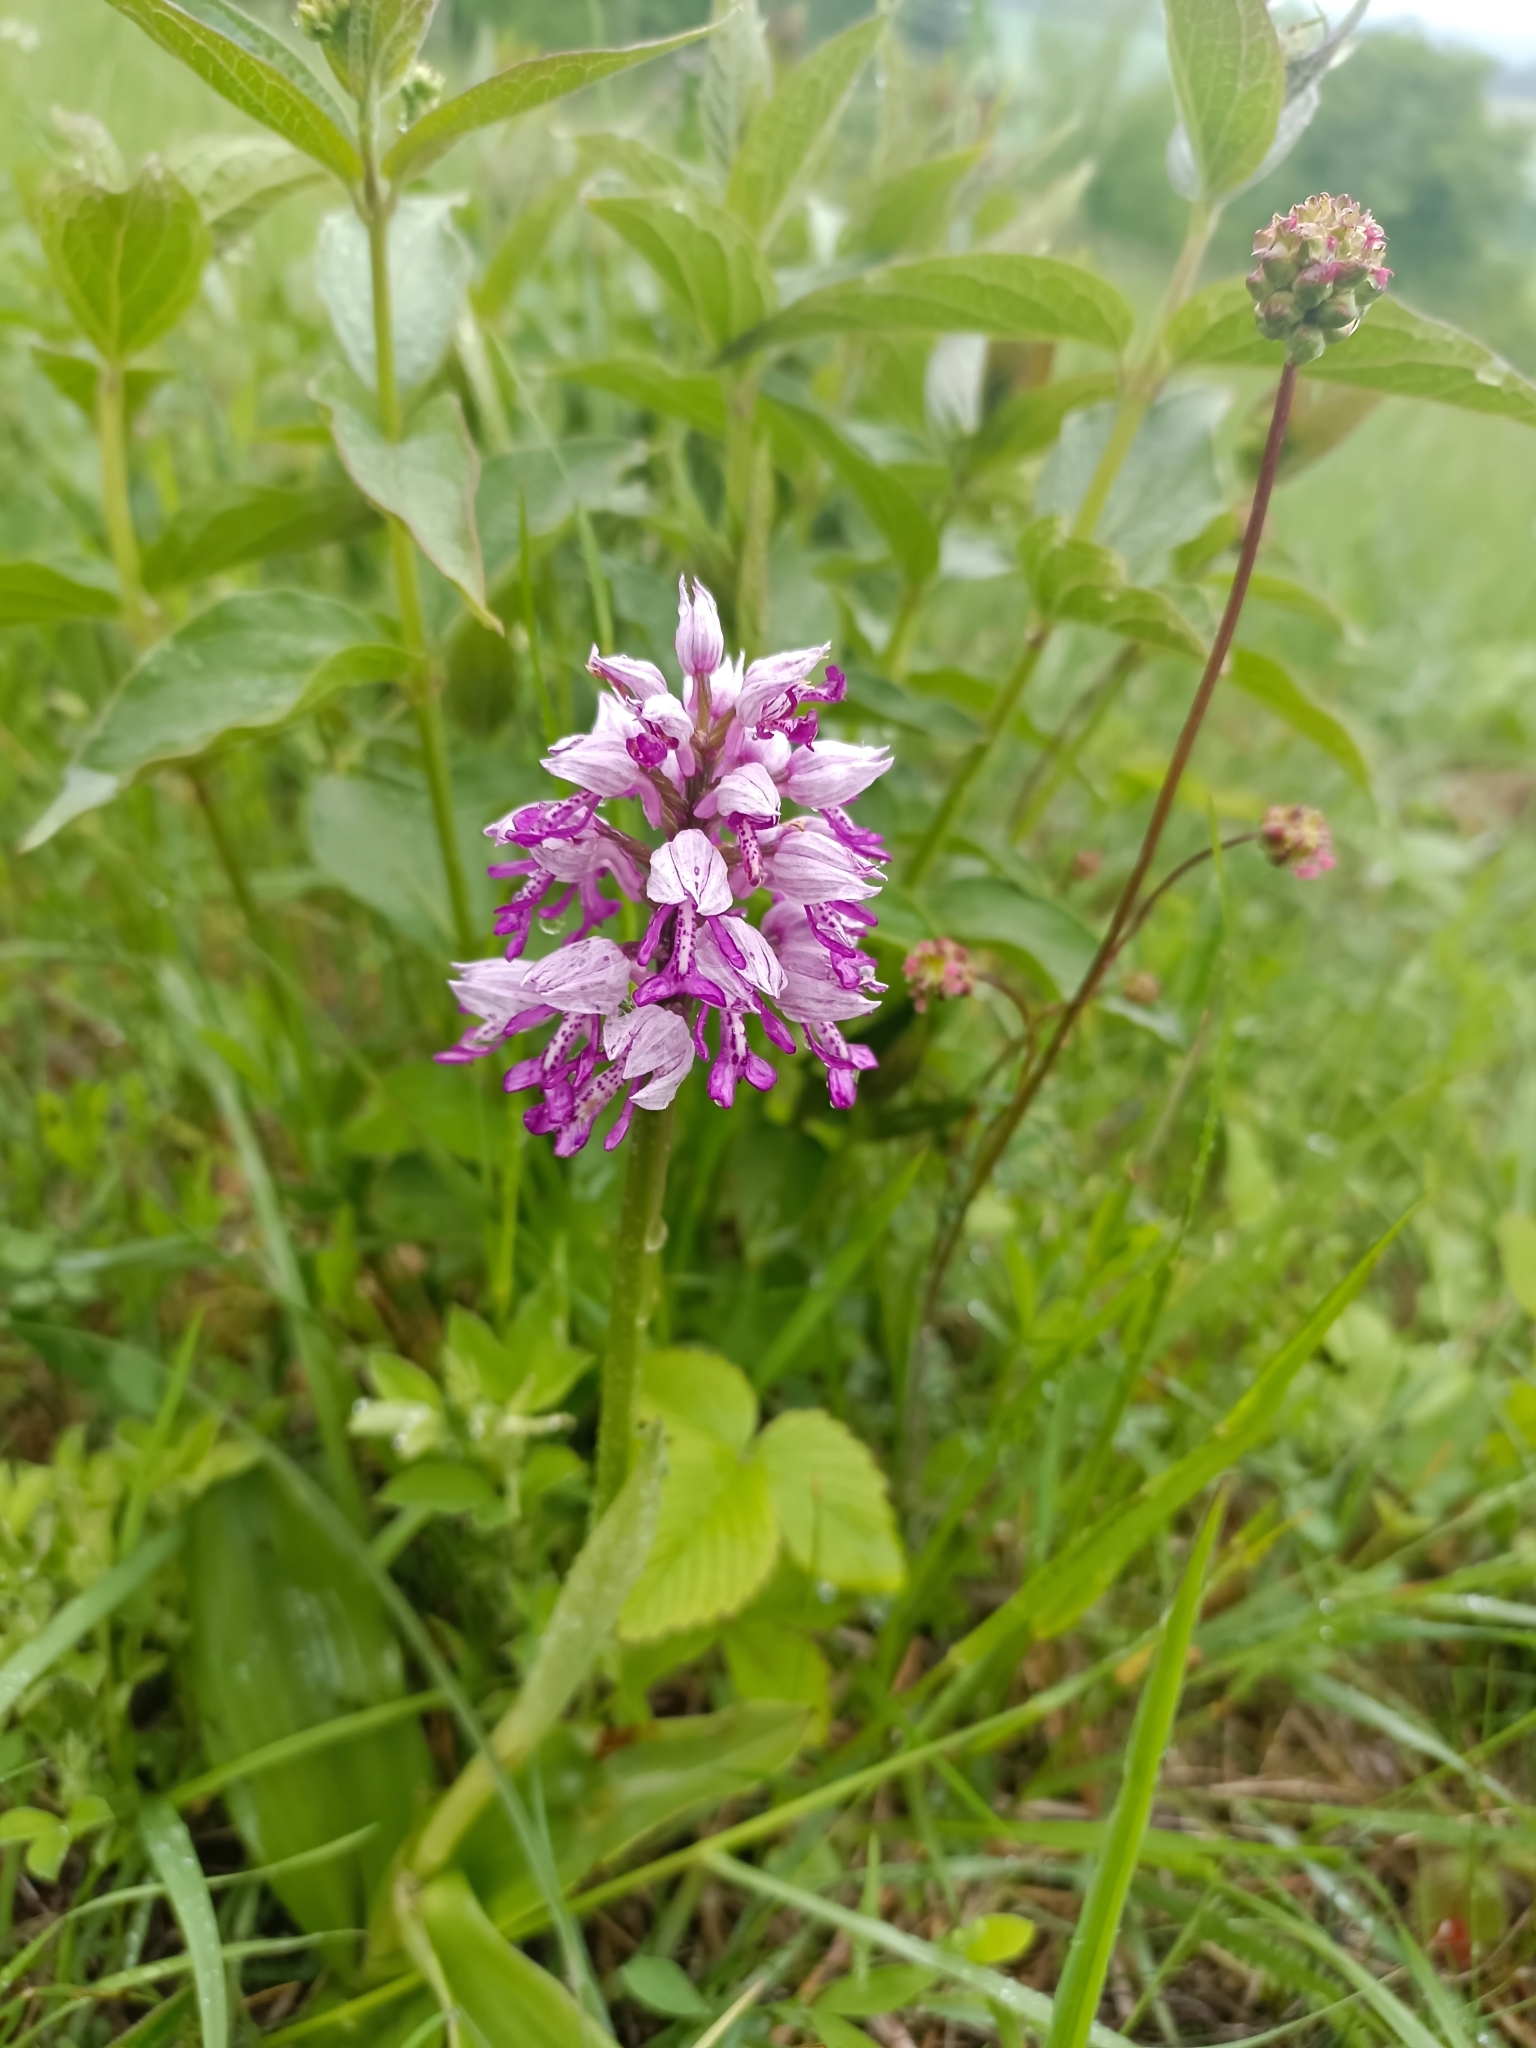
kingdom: Plantae
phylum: Tracheophyta
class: Liliopsida
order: Asparagales
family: Orchidaceae
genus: Orchis
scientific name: Orchis militaris
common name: Military orchid
